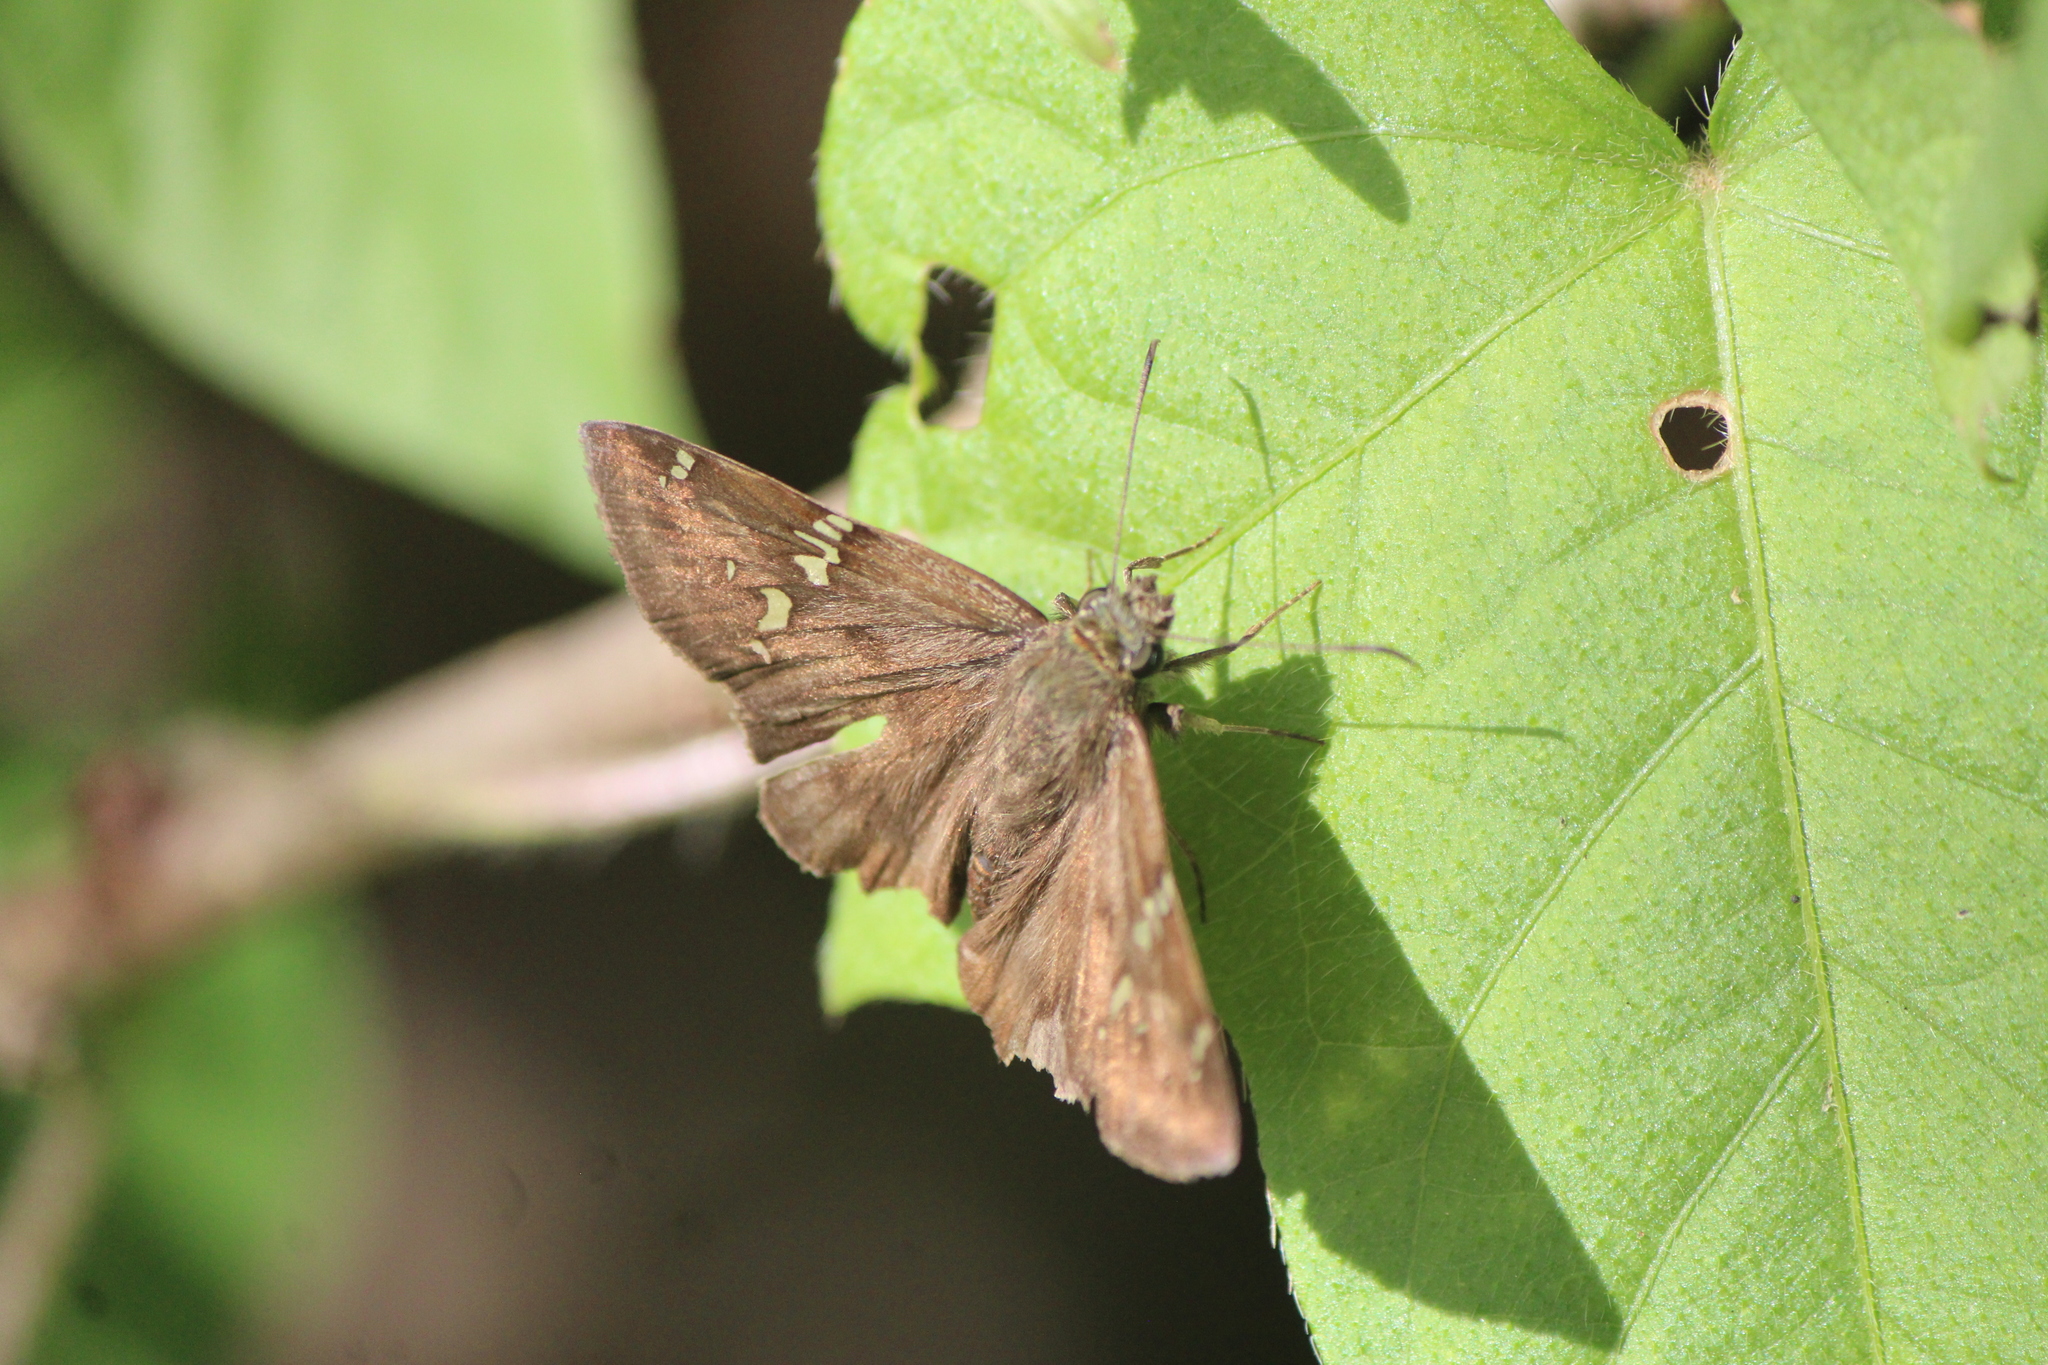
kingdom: Animalia
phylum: Arthropoda
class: Insecta
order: Lepidoptera
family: Hesperiidae
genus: Autochton
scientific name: Autochton potrillo
